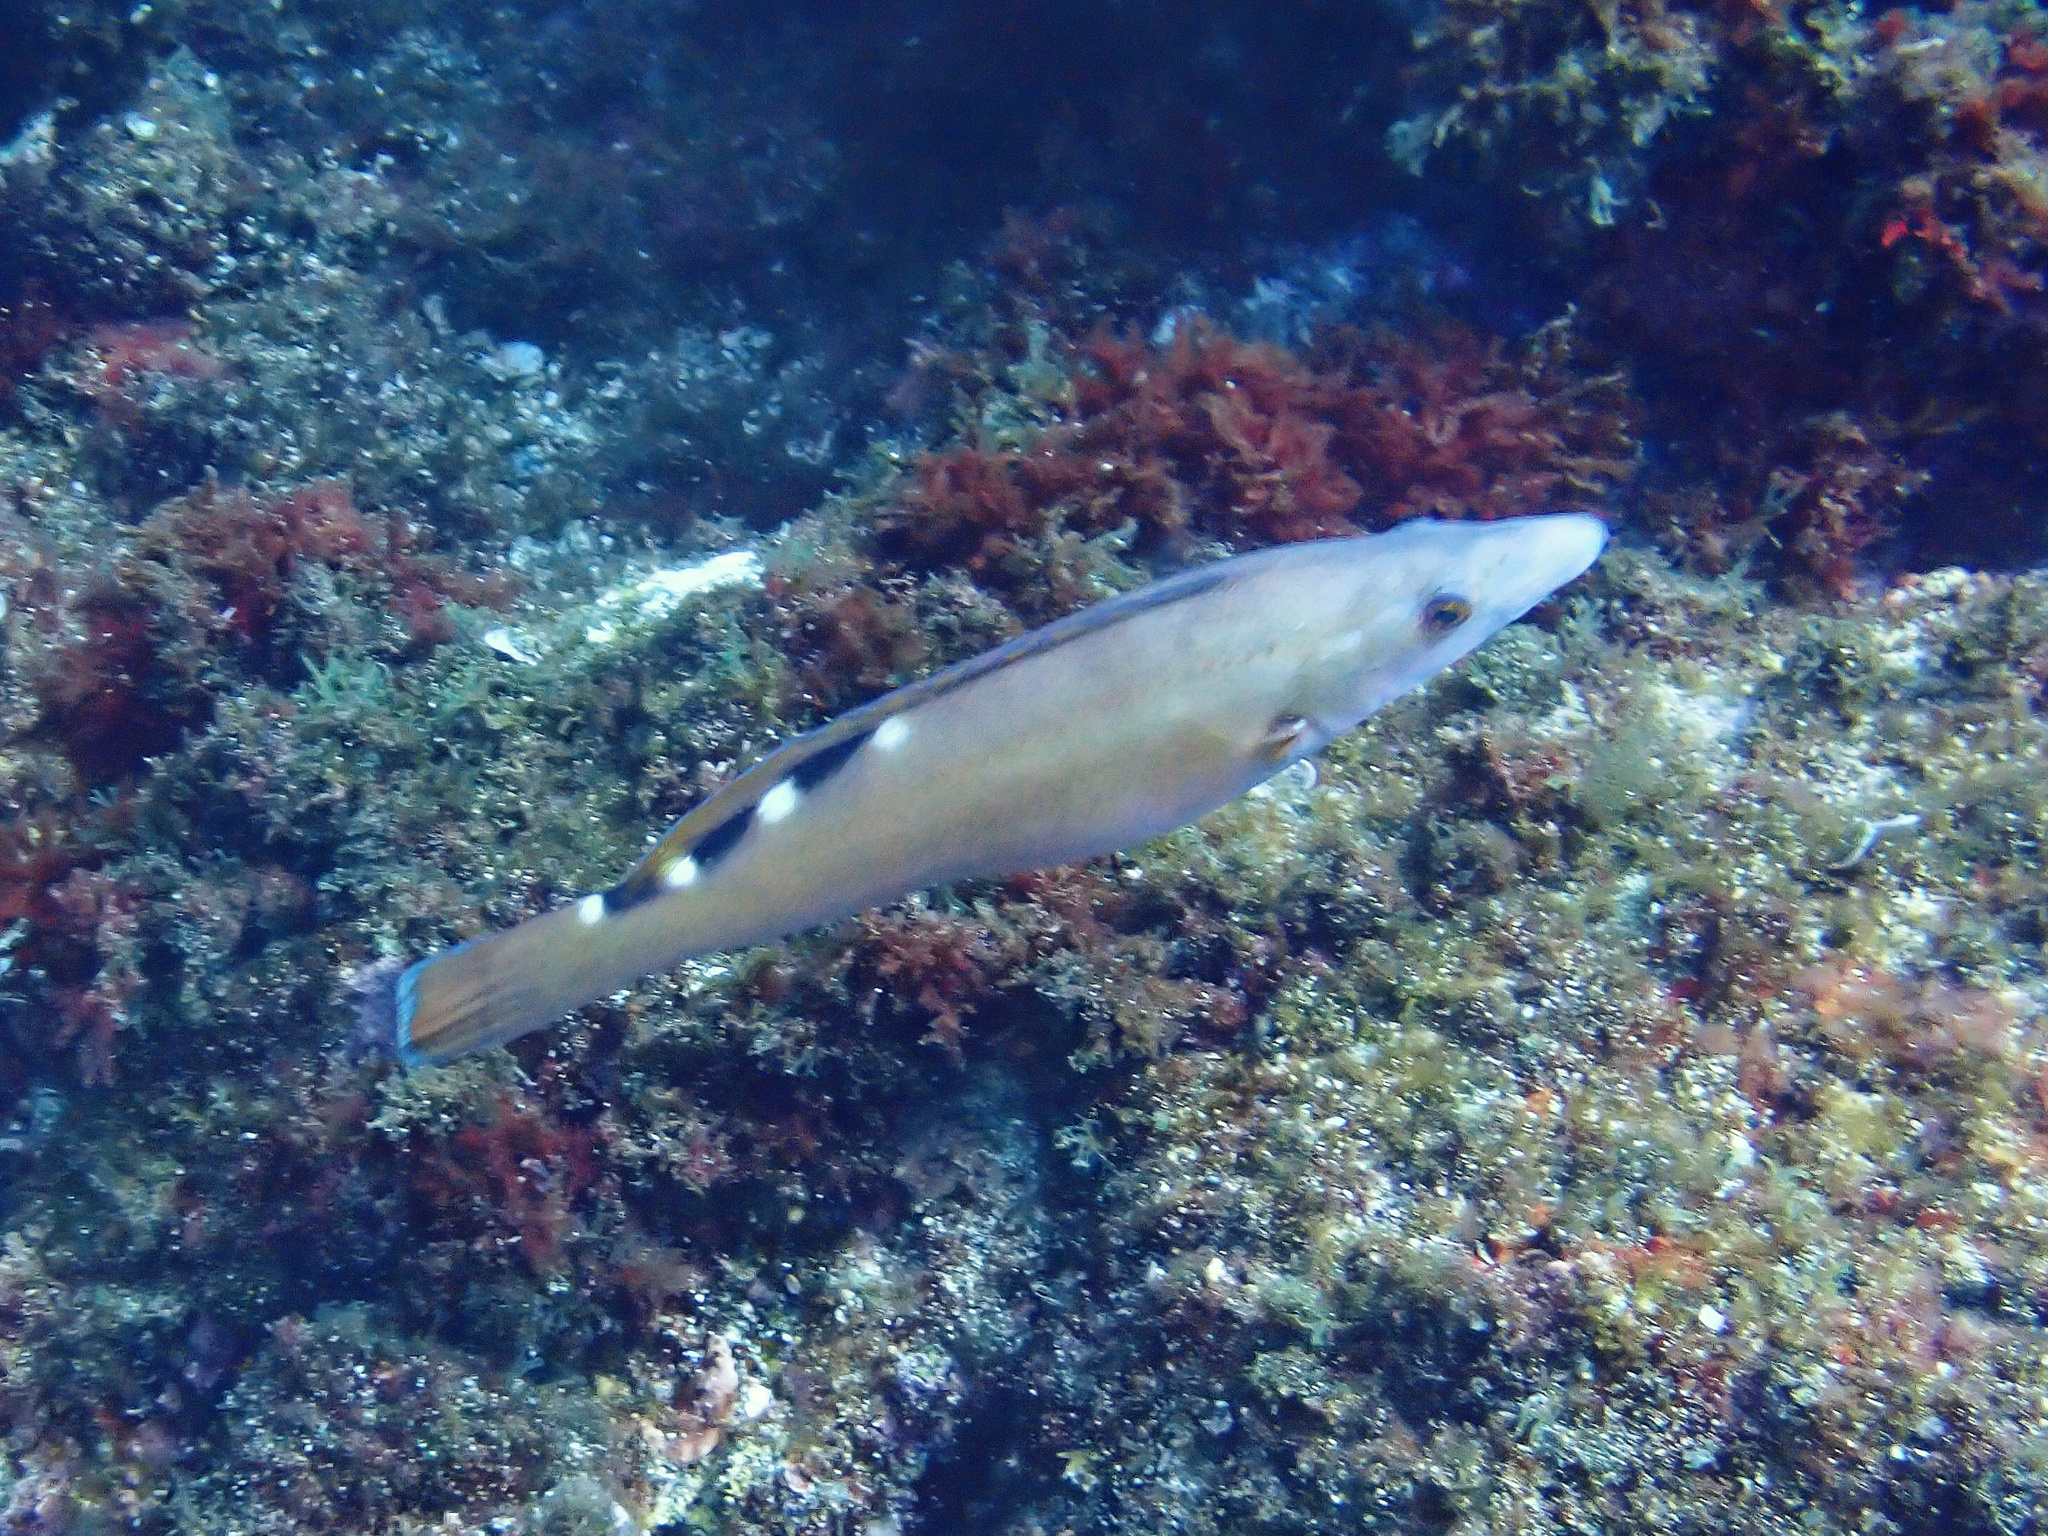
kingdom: Animalia
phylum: Chordata
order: Perciformes
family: Labridae
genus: Labrus
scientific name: Labrus mixtus
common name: Cuckoo wrasse
